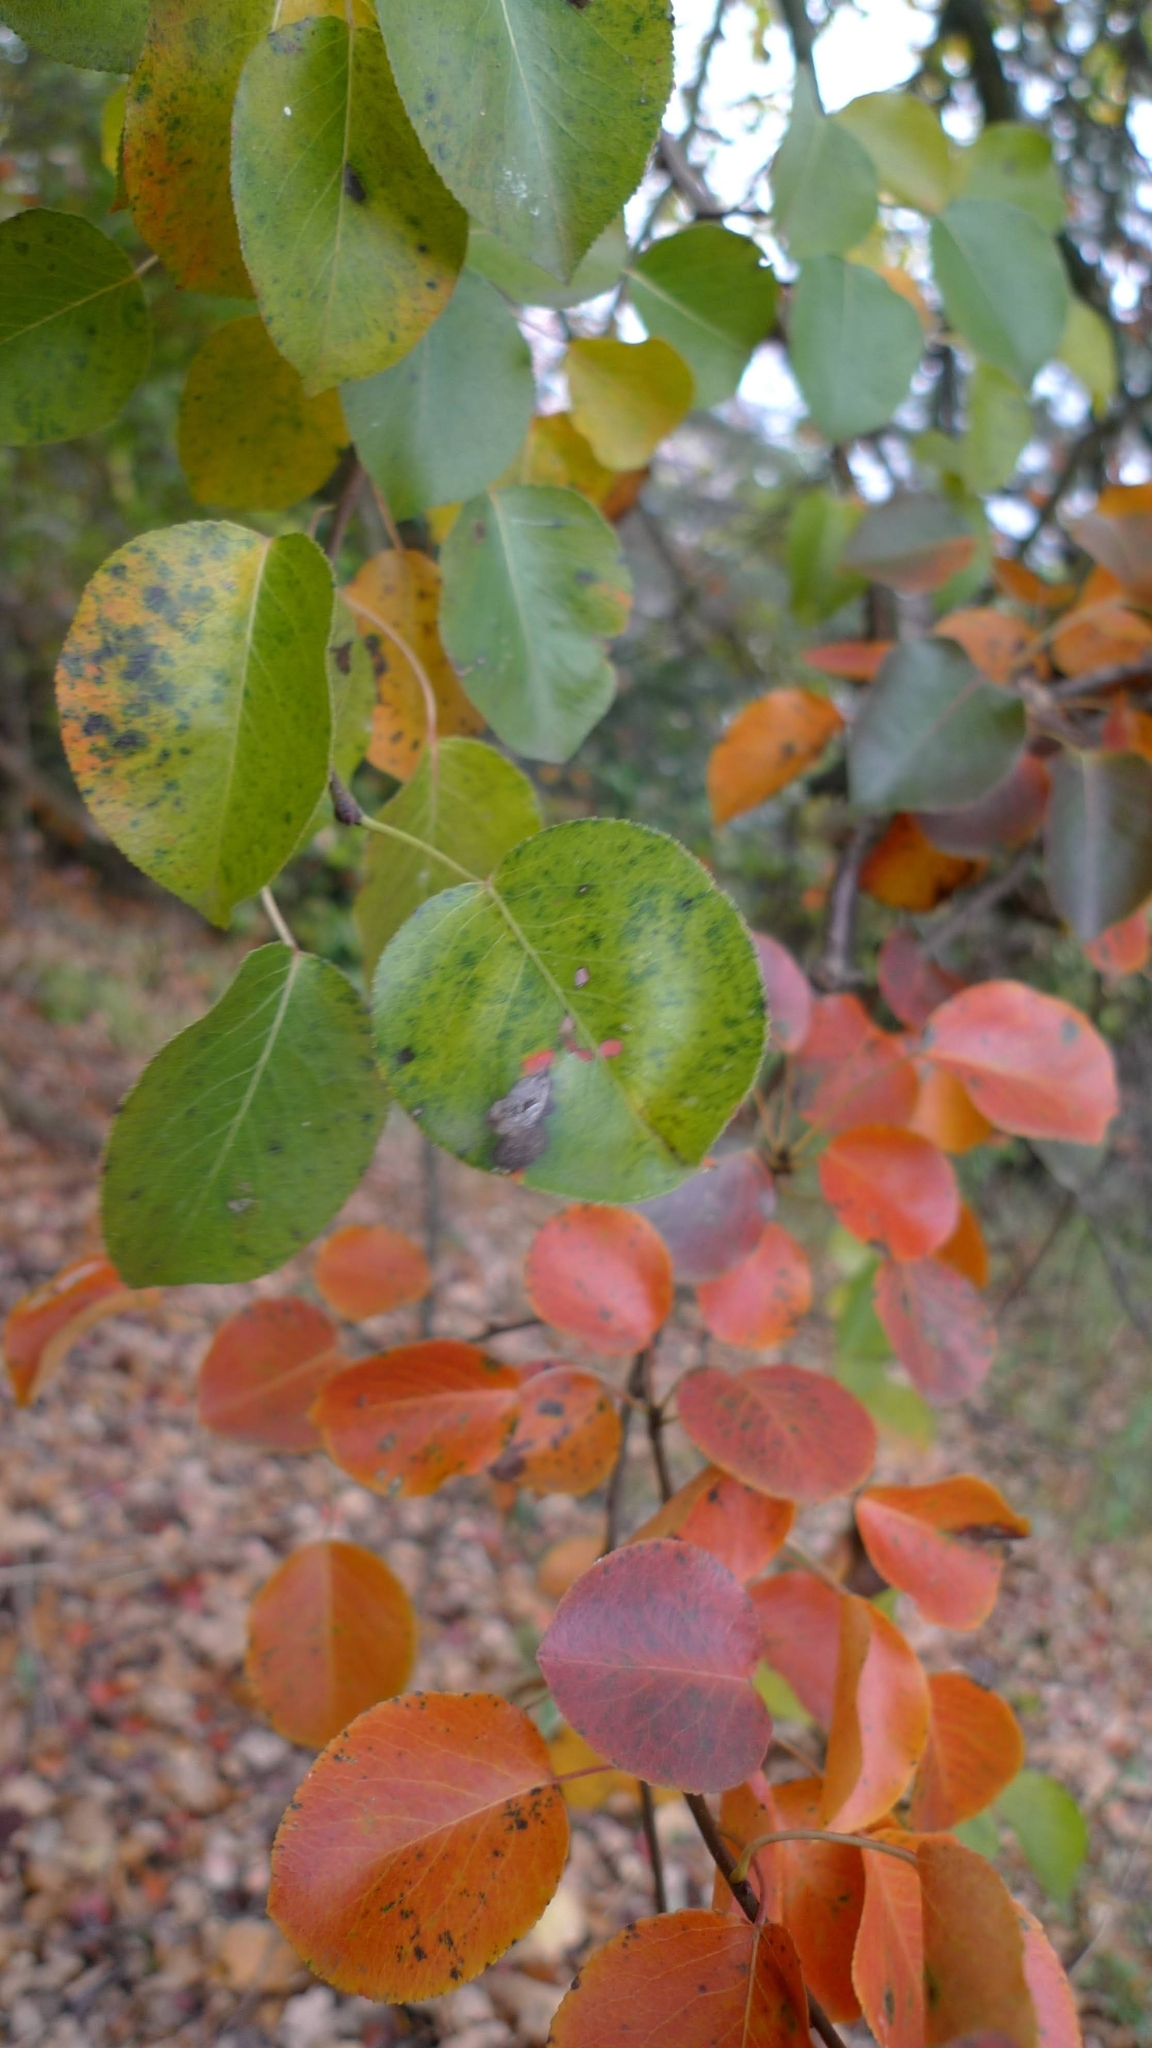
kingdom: Plantae
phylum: Tracheophyta
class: Magnoliopsida
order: Rosales
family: Rosaceae
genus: Pyrus
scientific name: Pyrus communis
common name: Pear
